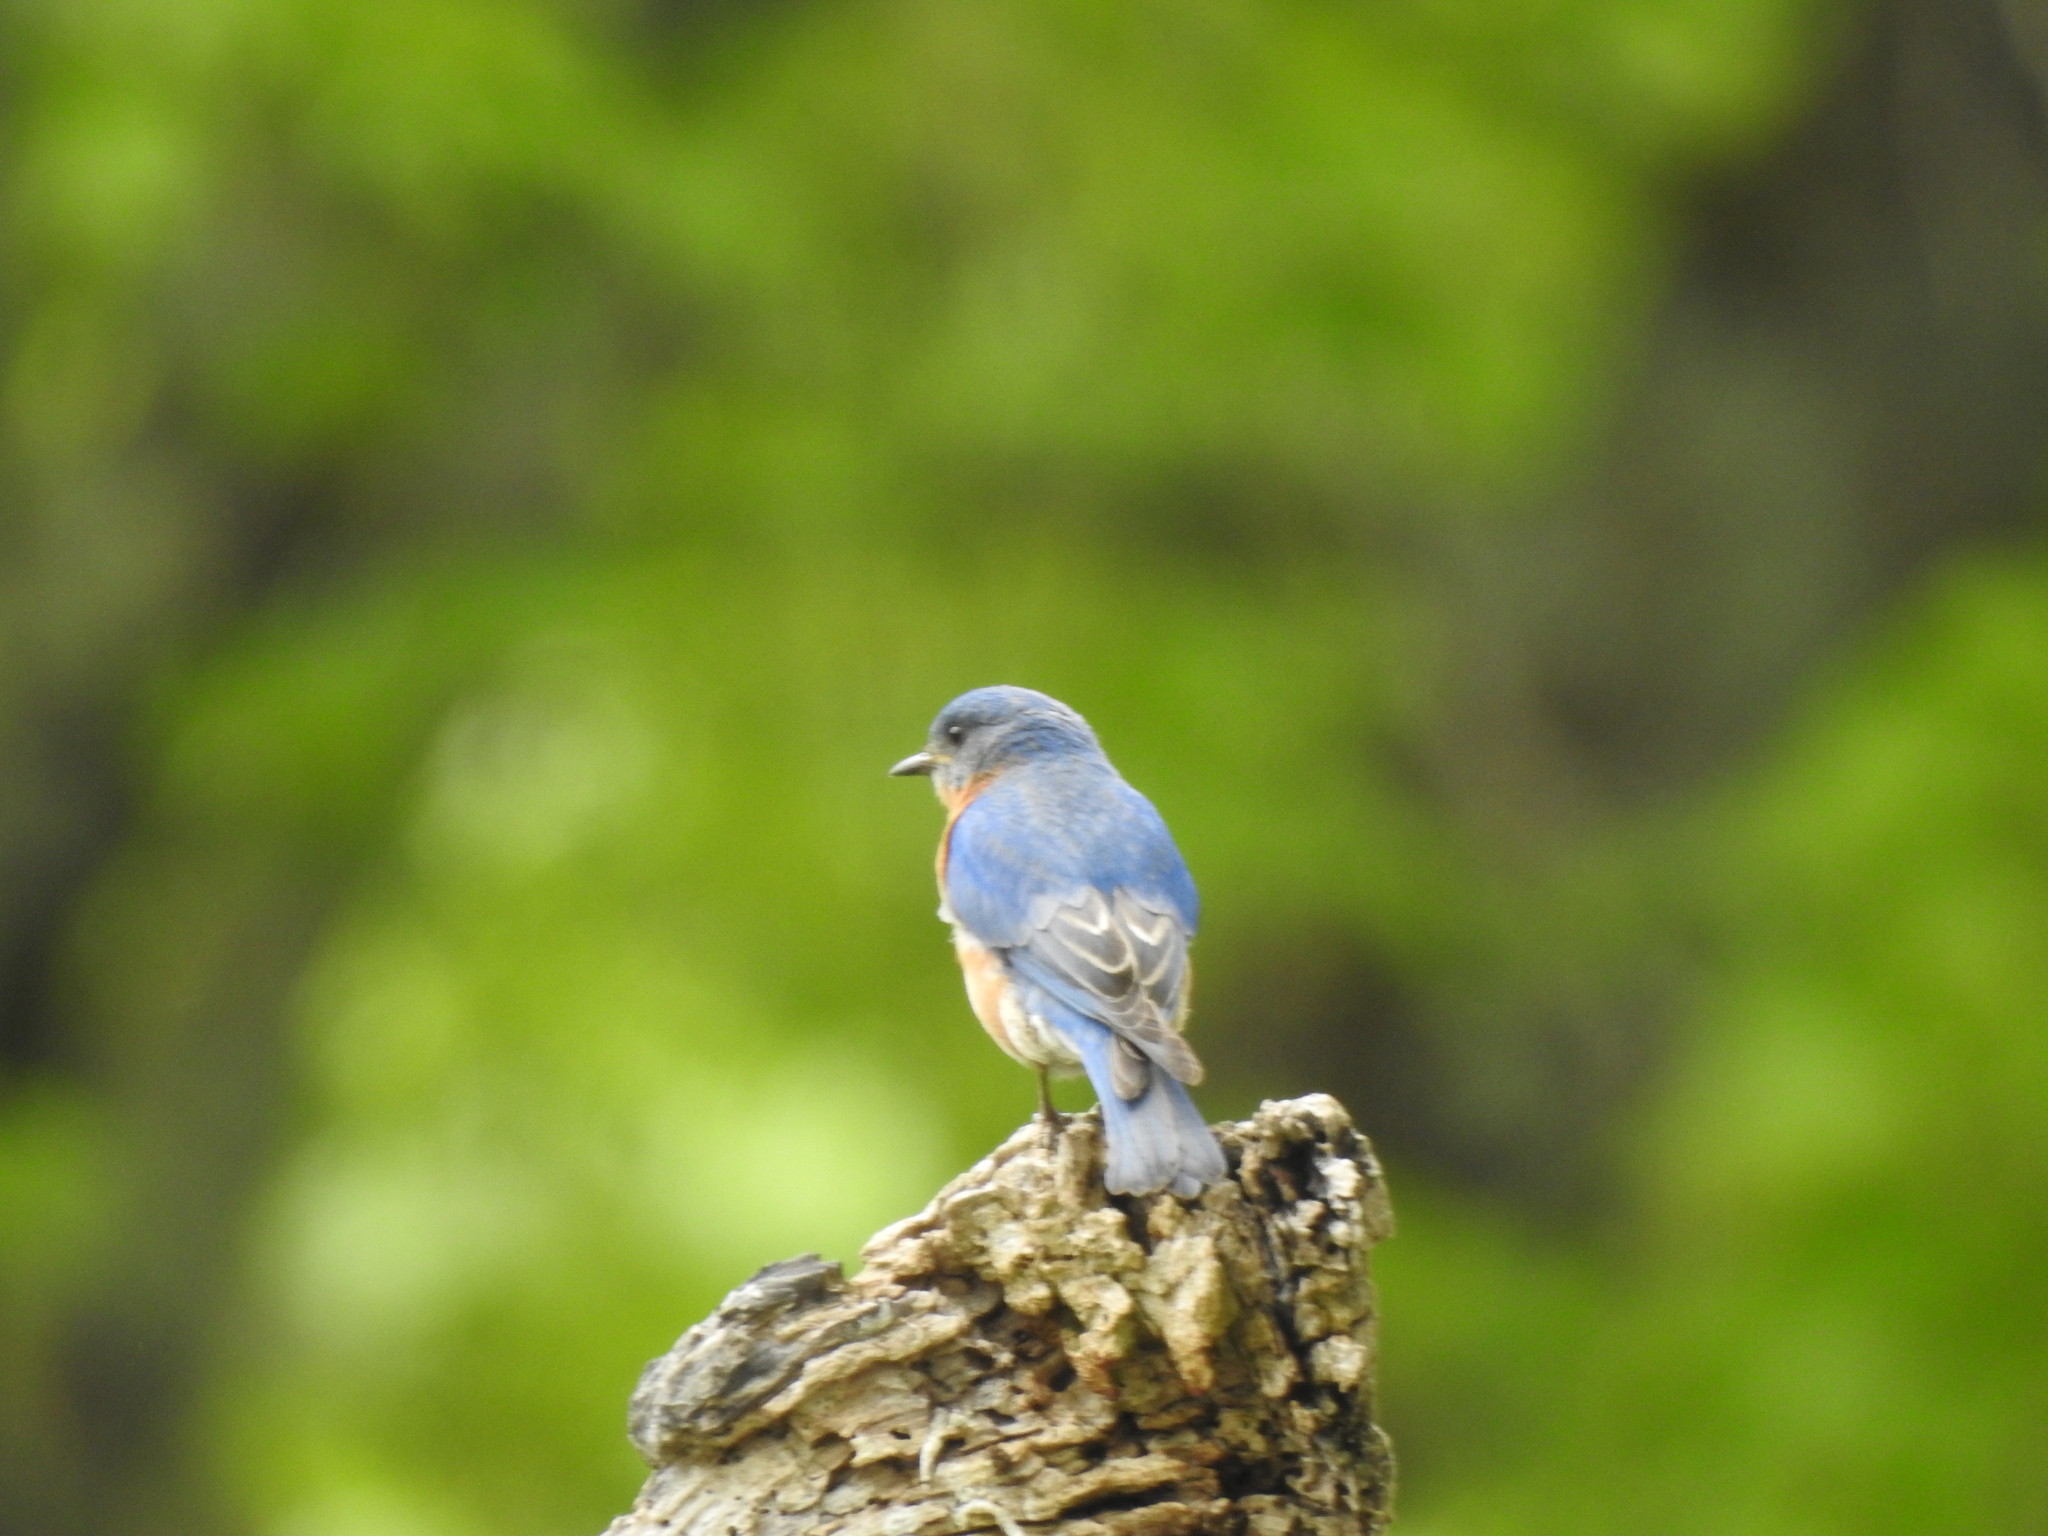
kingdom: Animalia
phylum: Chordata
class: Aves
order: Passeriformes
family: Turdidae
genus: Sialia
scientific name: Sialia sialis
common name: Eastern bluebird
